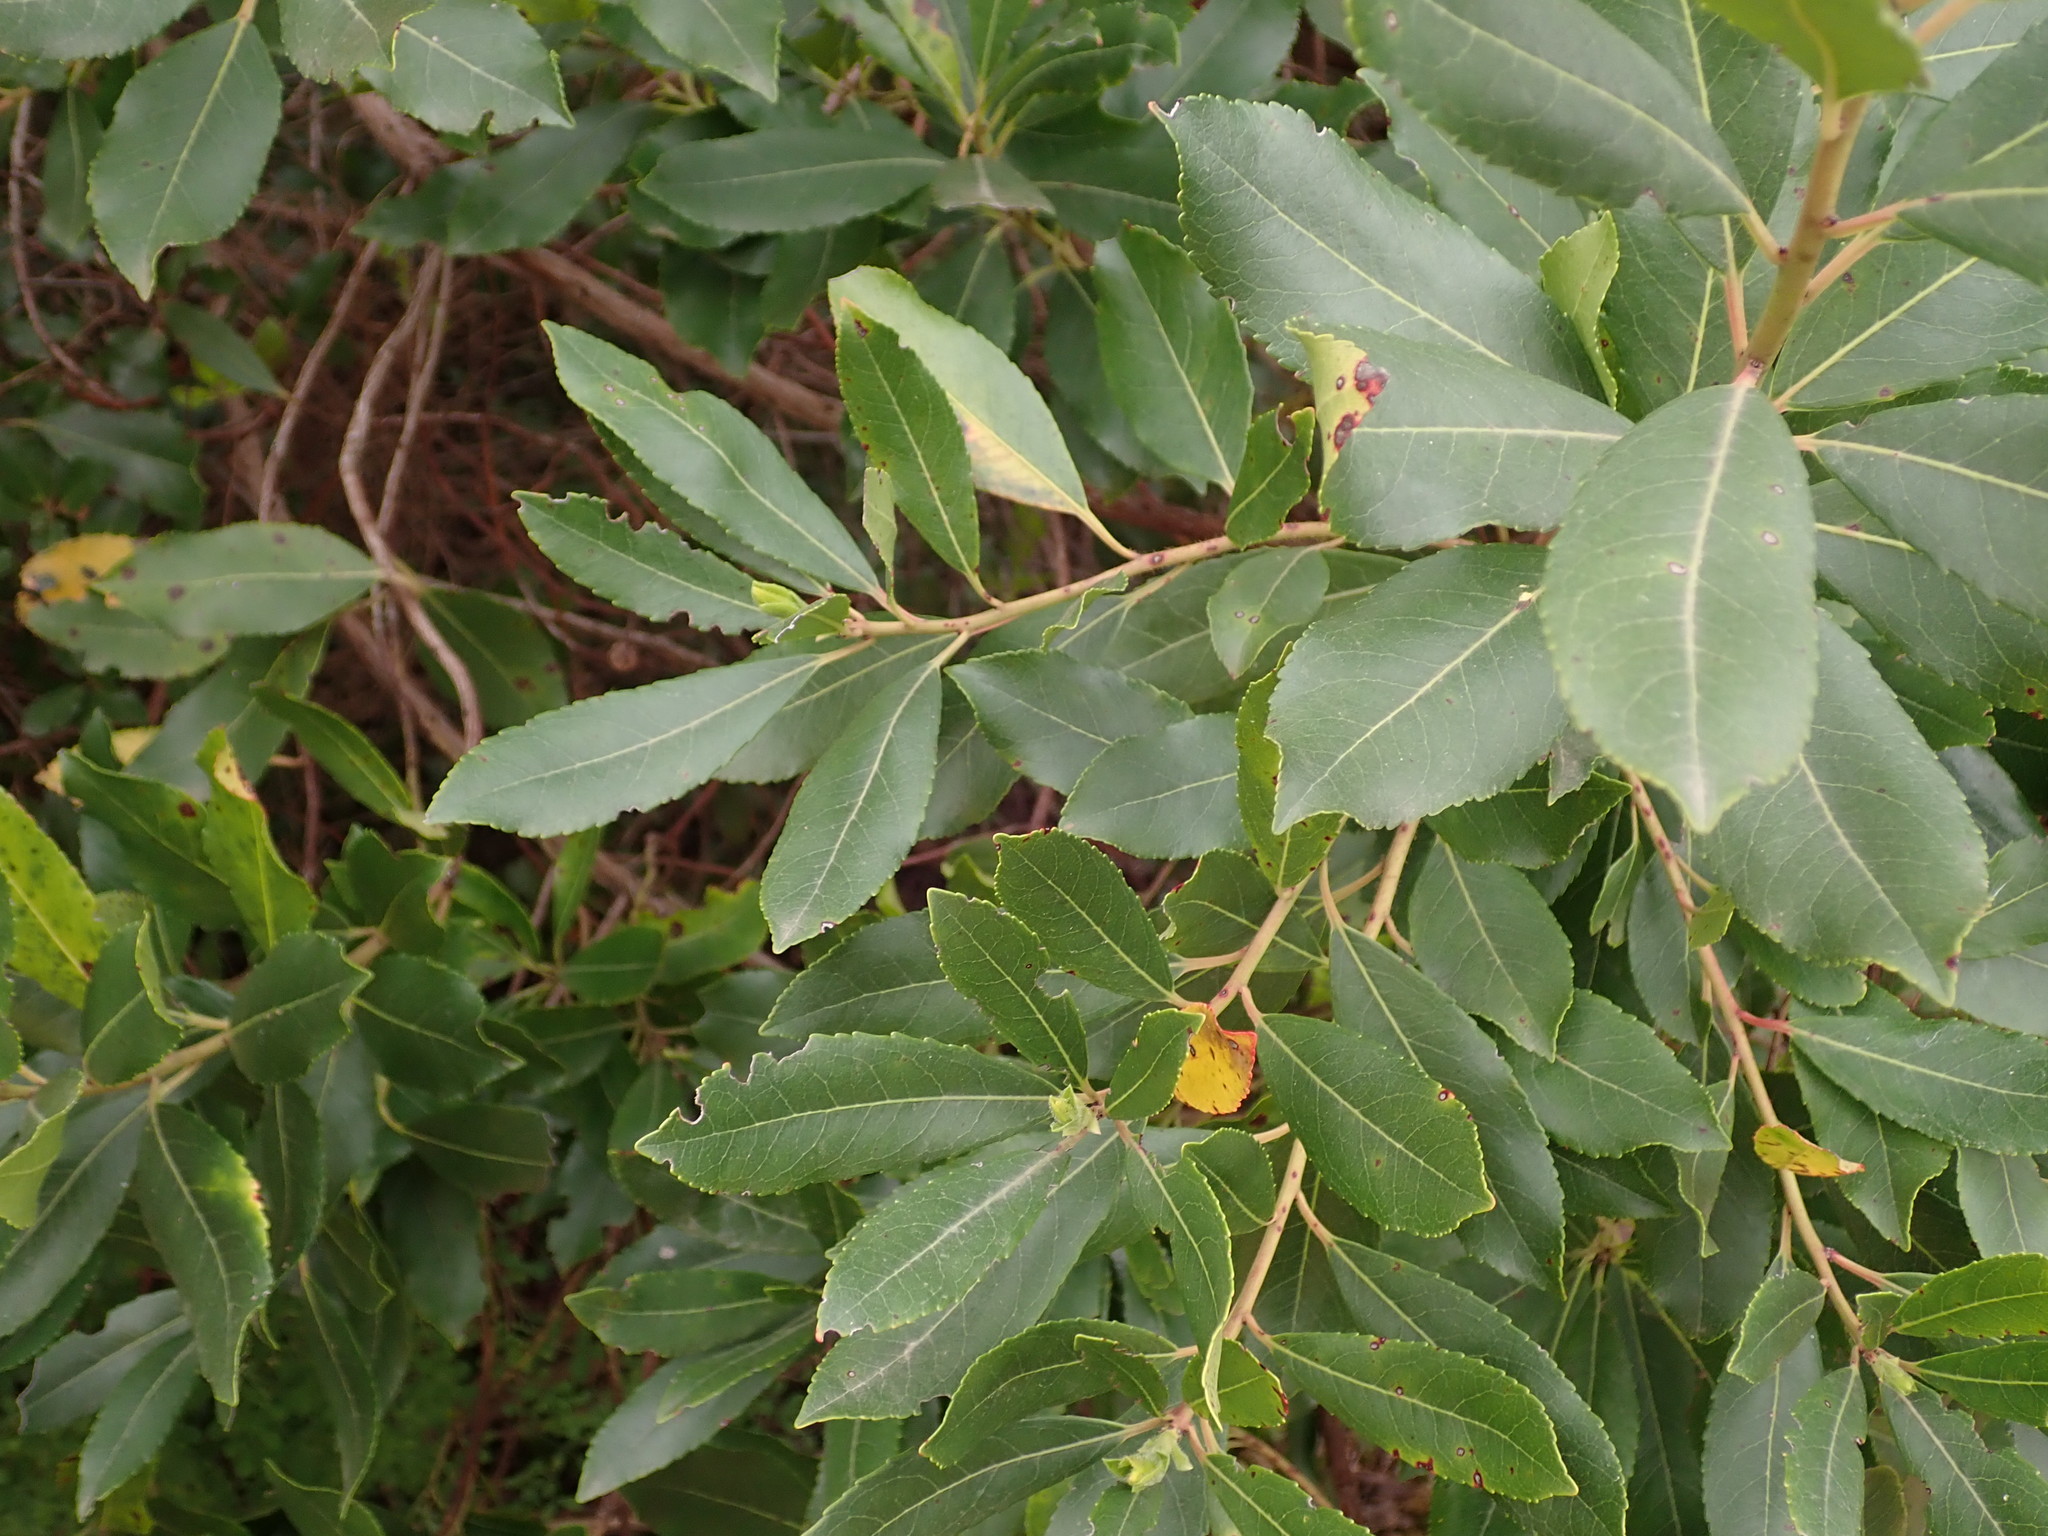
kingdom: Plantae
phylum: Tracheophyta
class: Magnoliopsida
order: Ericales
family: Ericaceae
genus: Arbutus
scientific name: Arbutus unedo
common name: Strawberry-tree
